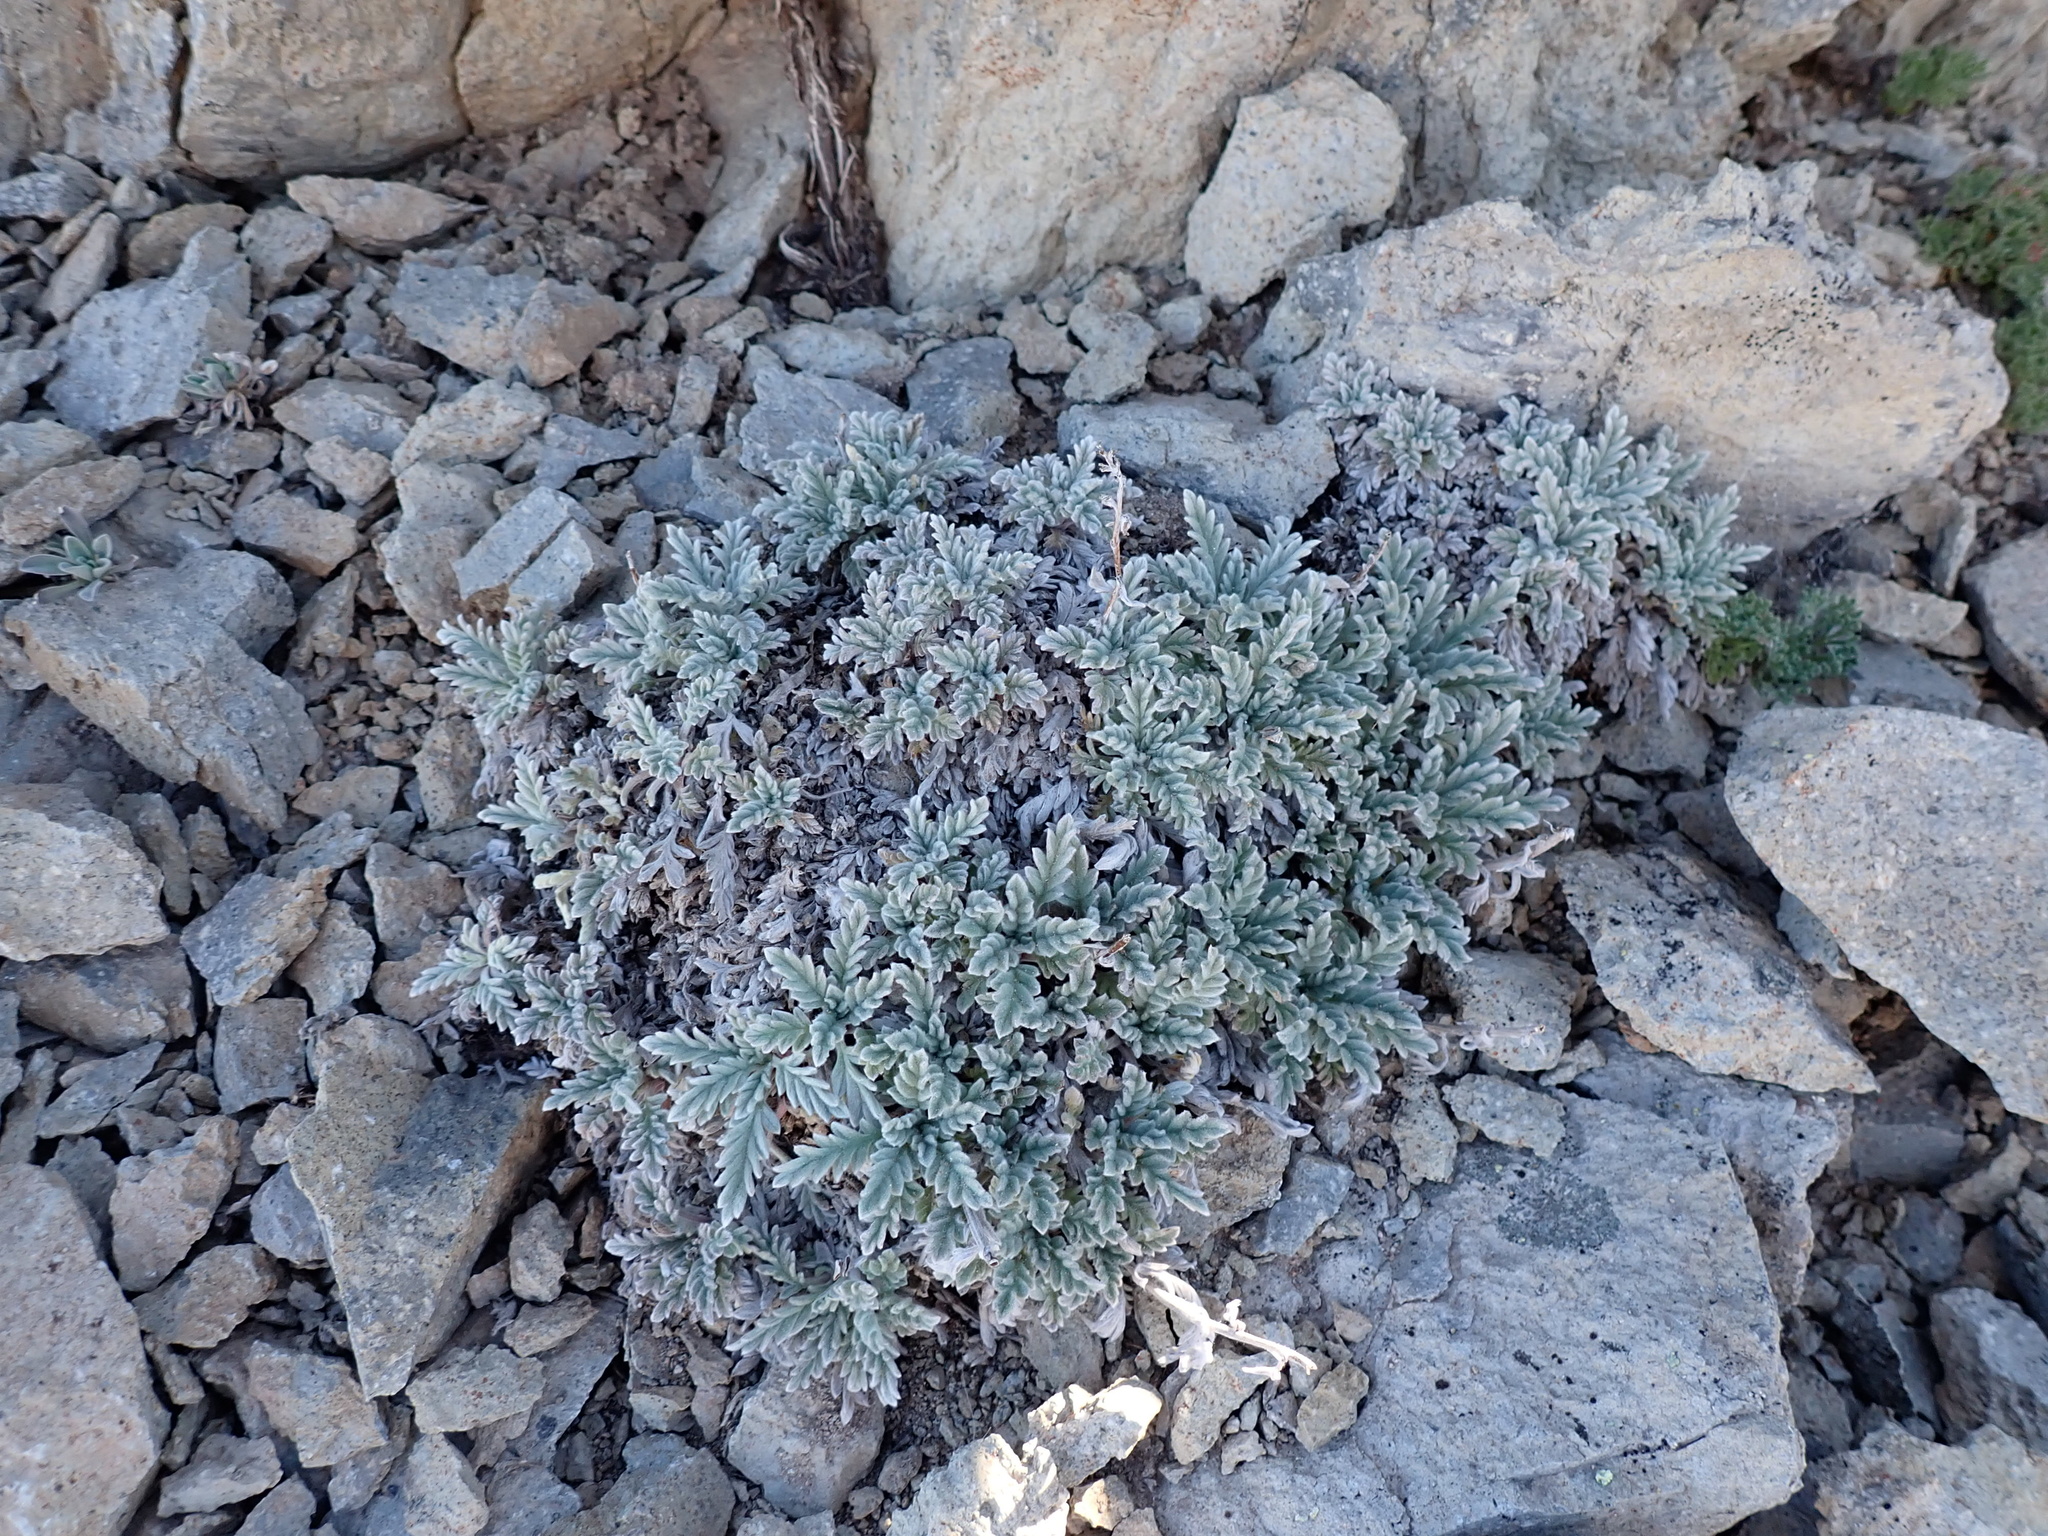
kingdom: Plantae
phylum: Tracheophyta
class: Magnoliopsida
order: Boraginales
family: Hydrophyllaceae
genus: Phacelia
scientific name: Phacelia sericea
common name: Silky phacelia
